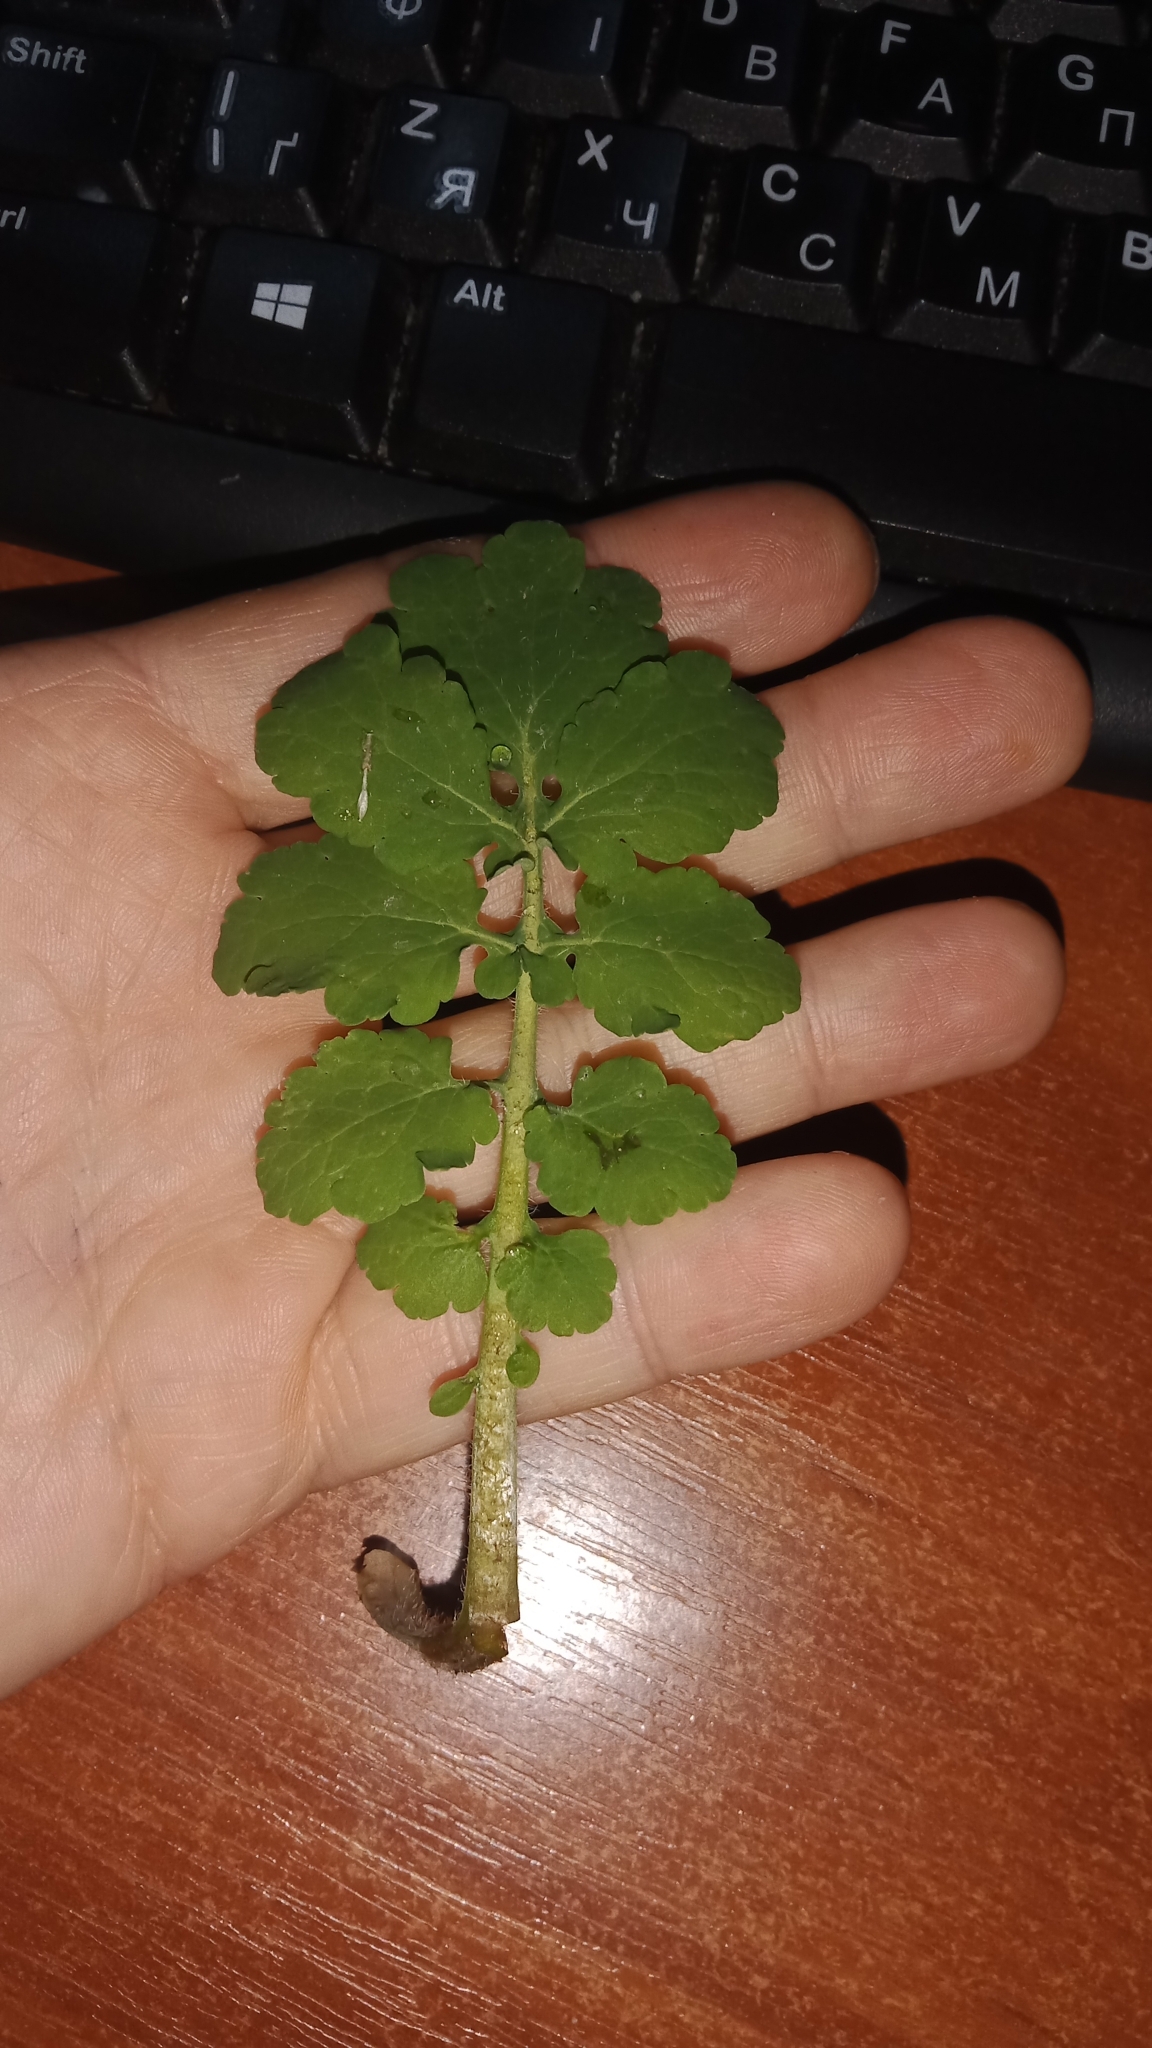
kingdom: Plantae
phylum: Tracheophyta
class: Magnoliopsida
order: Ranunculales
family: Papaveraceae
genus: Chelidonium
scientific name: Chelidonium majus
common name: Greater celandine
